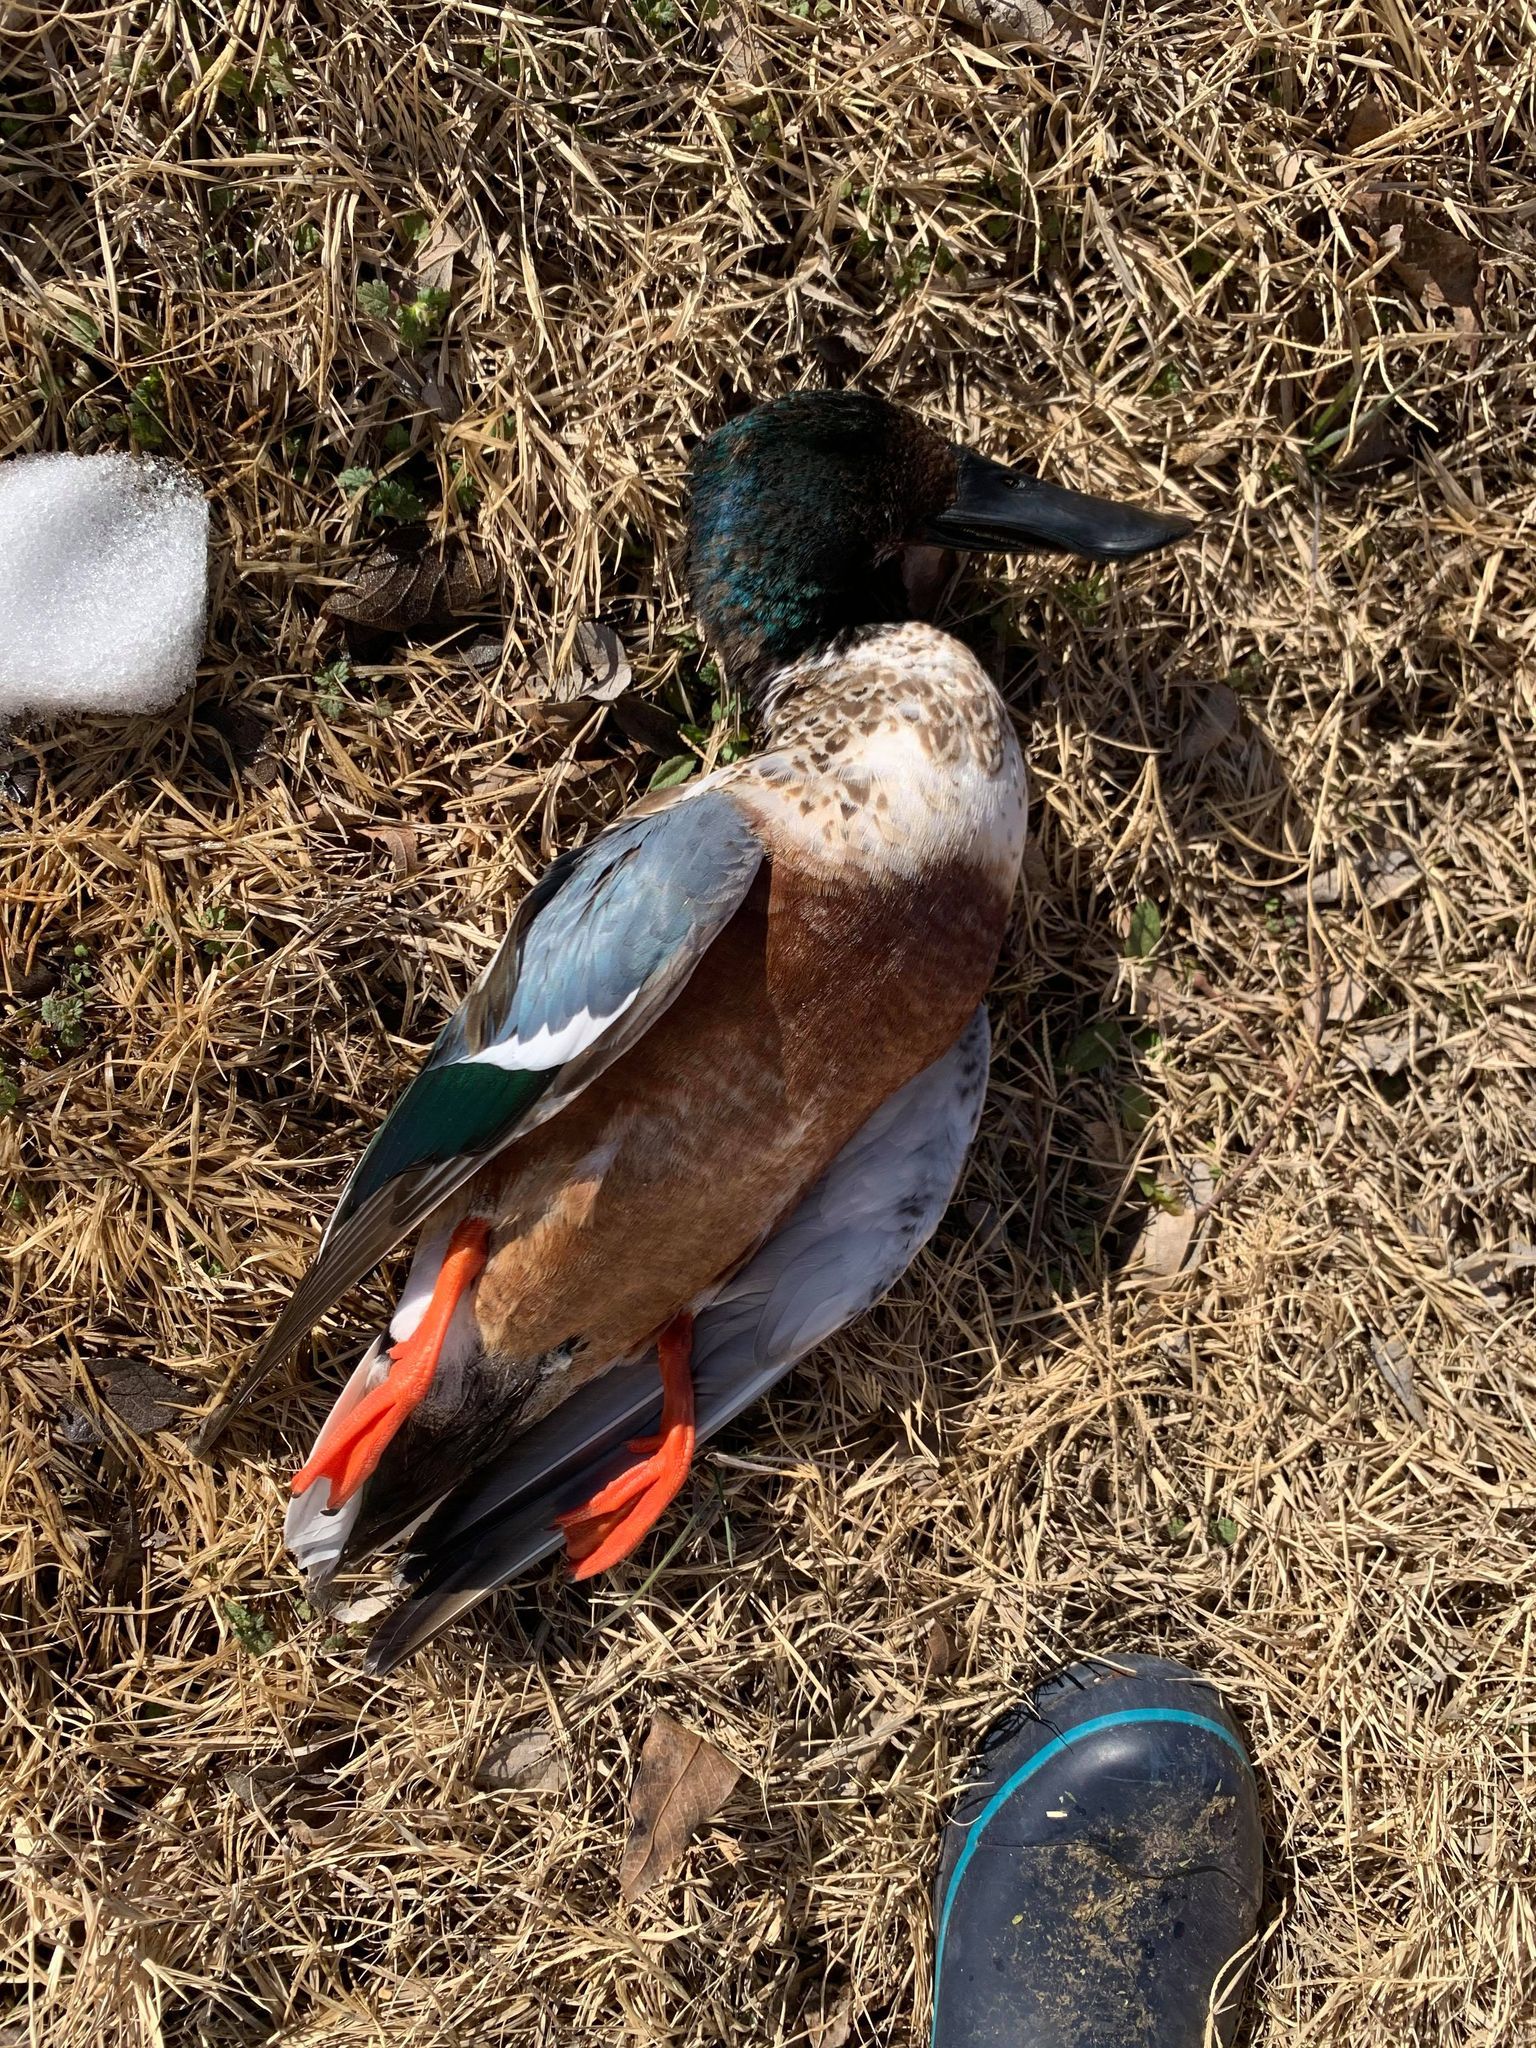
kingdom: Animalia
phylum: Chordata
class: Aves
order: Anseriformes
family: Anatidae
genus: Spatula
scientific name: Spatula clypeata
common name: Northern shoveler
